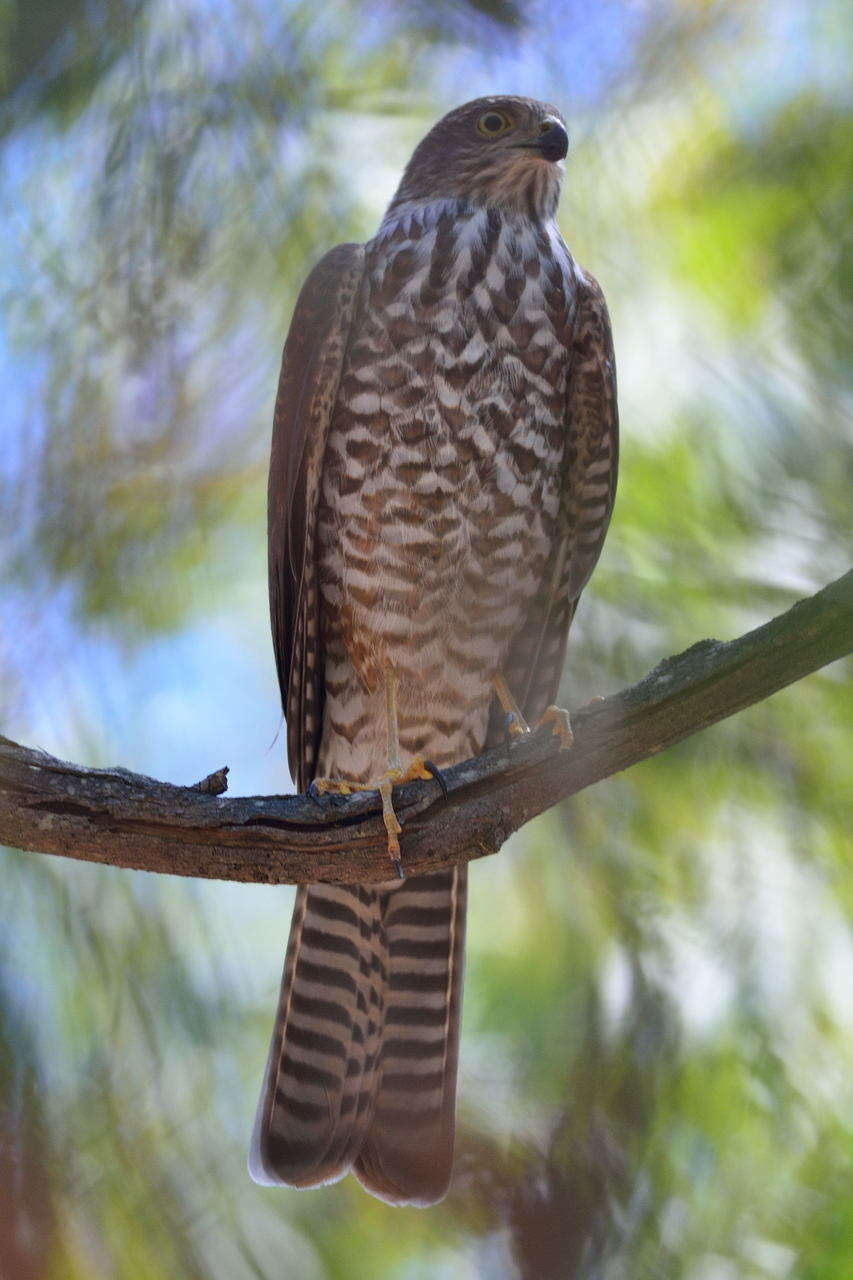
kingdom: Animalia
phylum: Chordata
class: Aves
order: Accipitriformes
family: Accipitridae
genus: Accipiter
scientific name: Accipiter cirrocephalus
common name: Collared sparrowhawk
